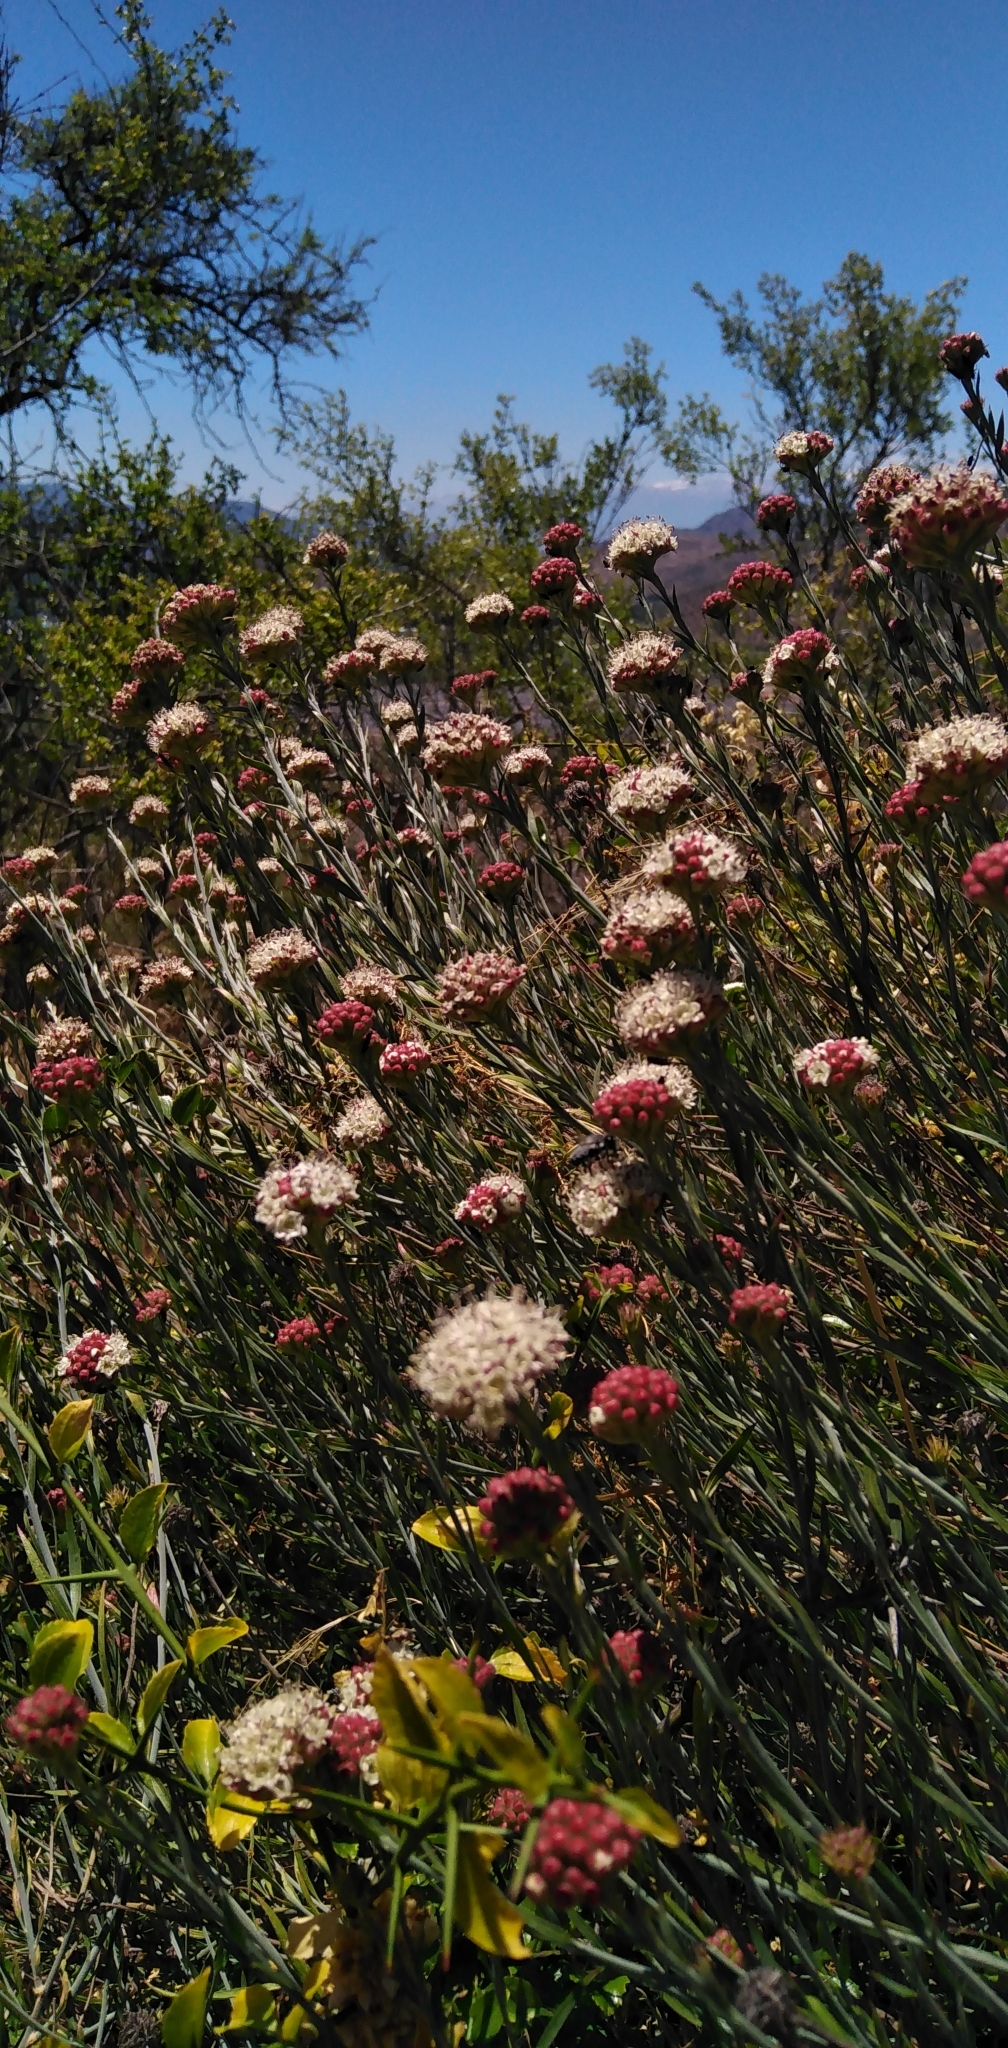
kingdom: Plantae
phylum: Tracheophyta
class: Magnoliopsida
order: Malpighiales
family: Malesherbiaceae
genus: Malesherbia
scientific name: Malesherbia fasciculata
